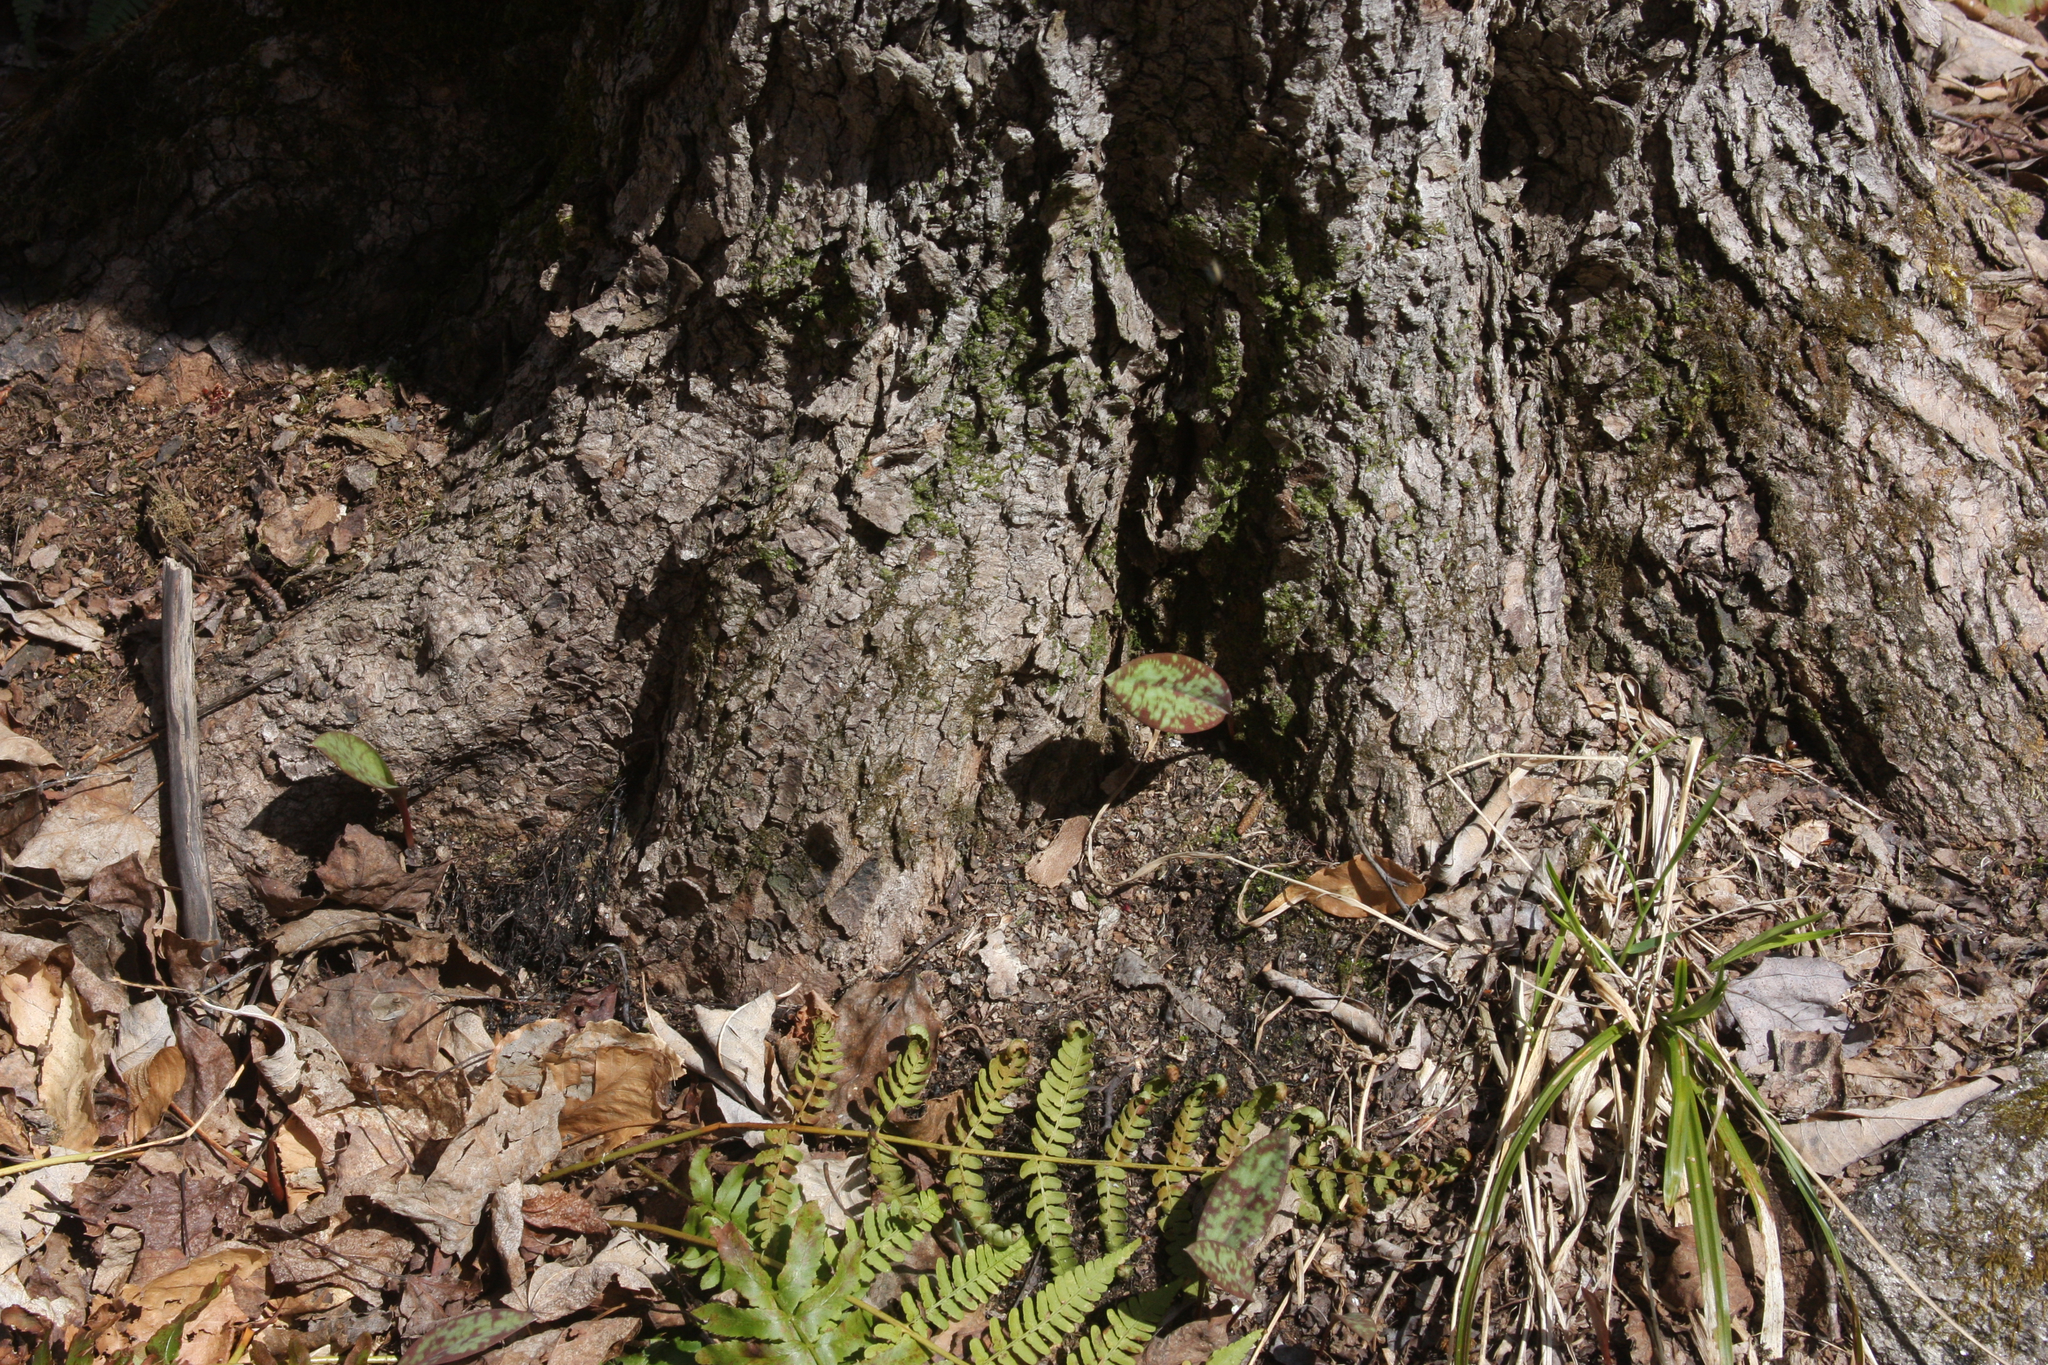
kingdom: Plantae
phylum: Tracheophyta
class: Liliopsida
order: Liliales
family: Liliaceae
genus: Erythronium
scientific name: Erythronium americanum
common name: Yellow adder's-tongue
